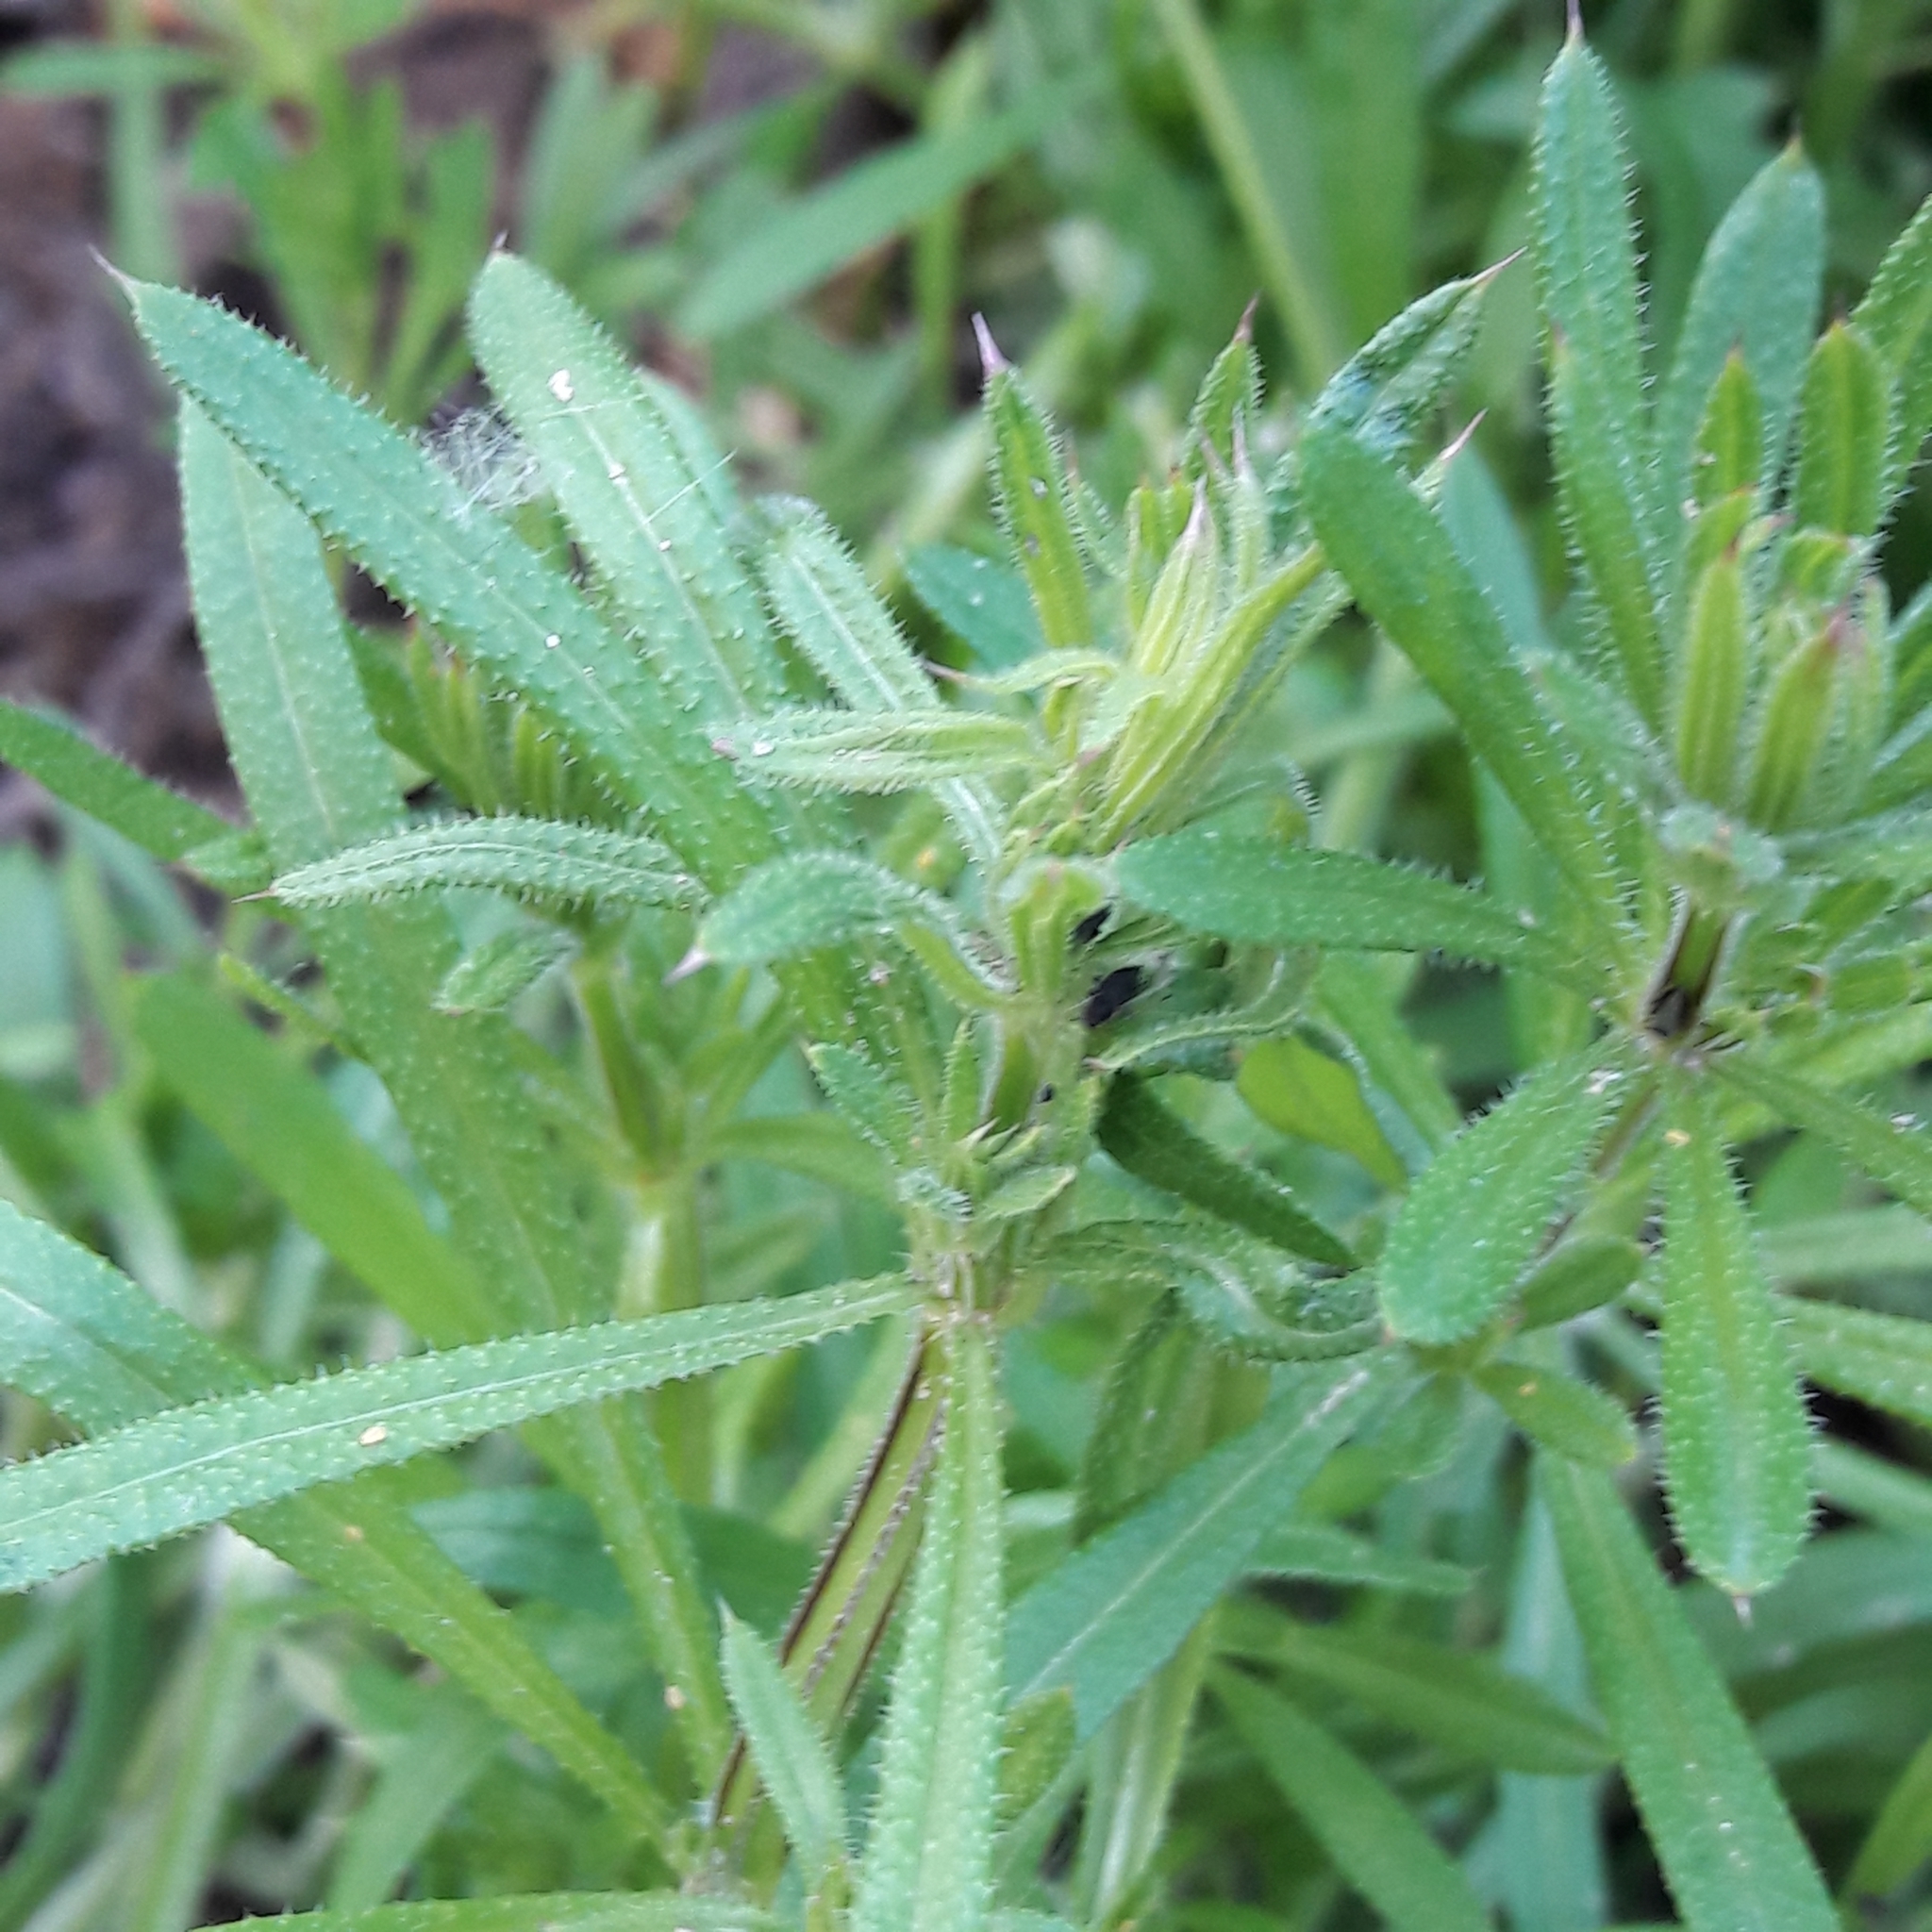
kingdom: Plantae
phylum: Tracheophyta
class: Magnoliopsida
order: Gentianales
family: Rubiaceae
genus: Galium
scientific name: Galium aparine
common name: Cleavers
